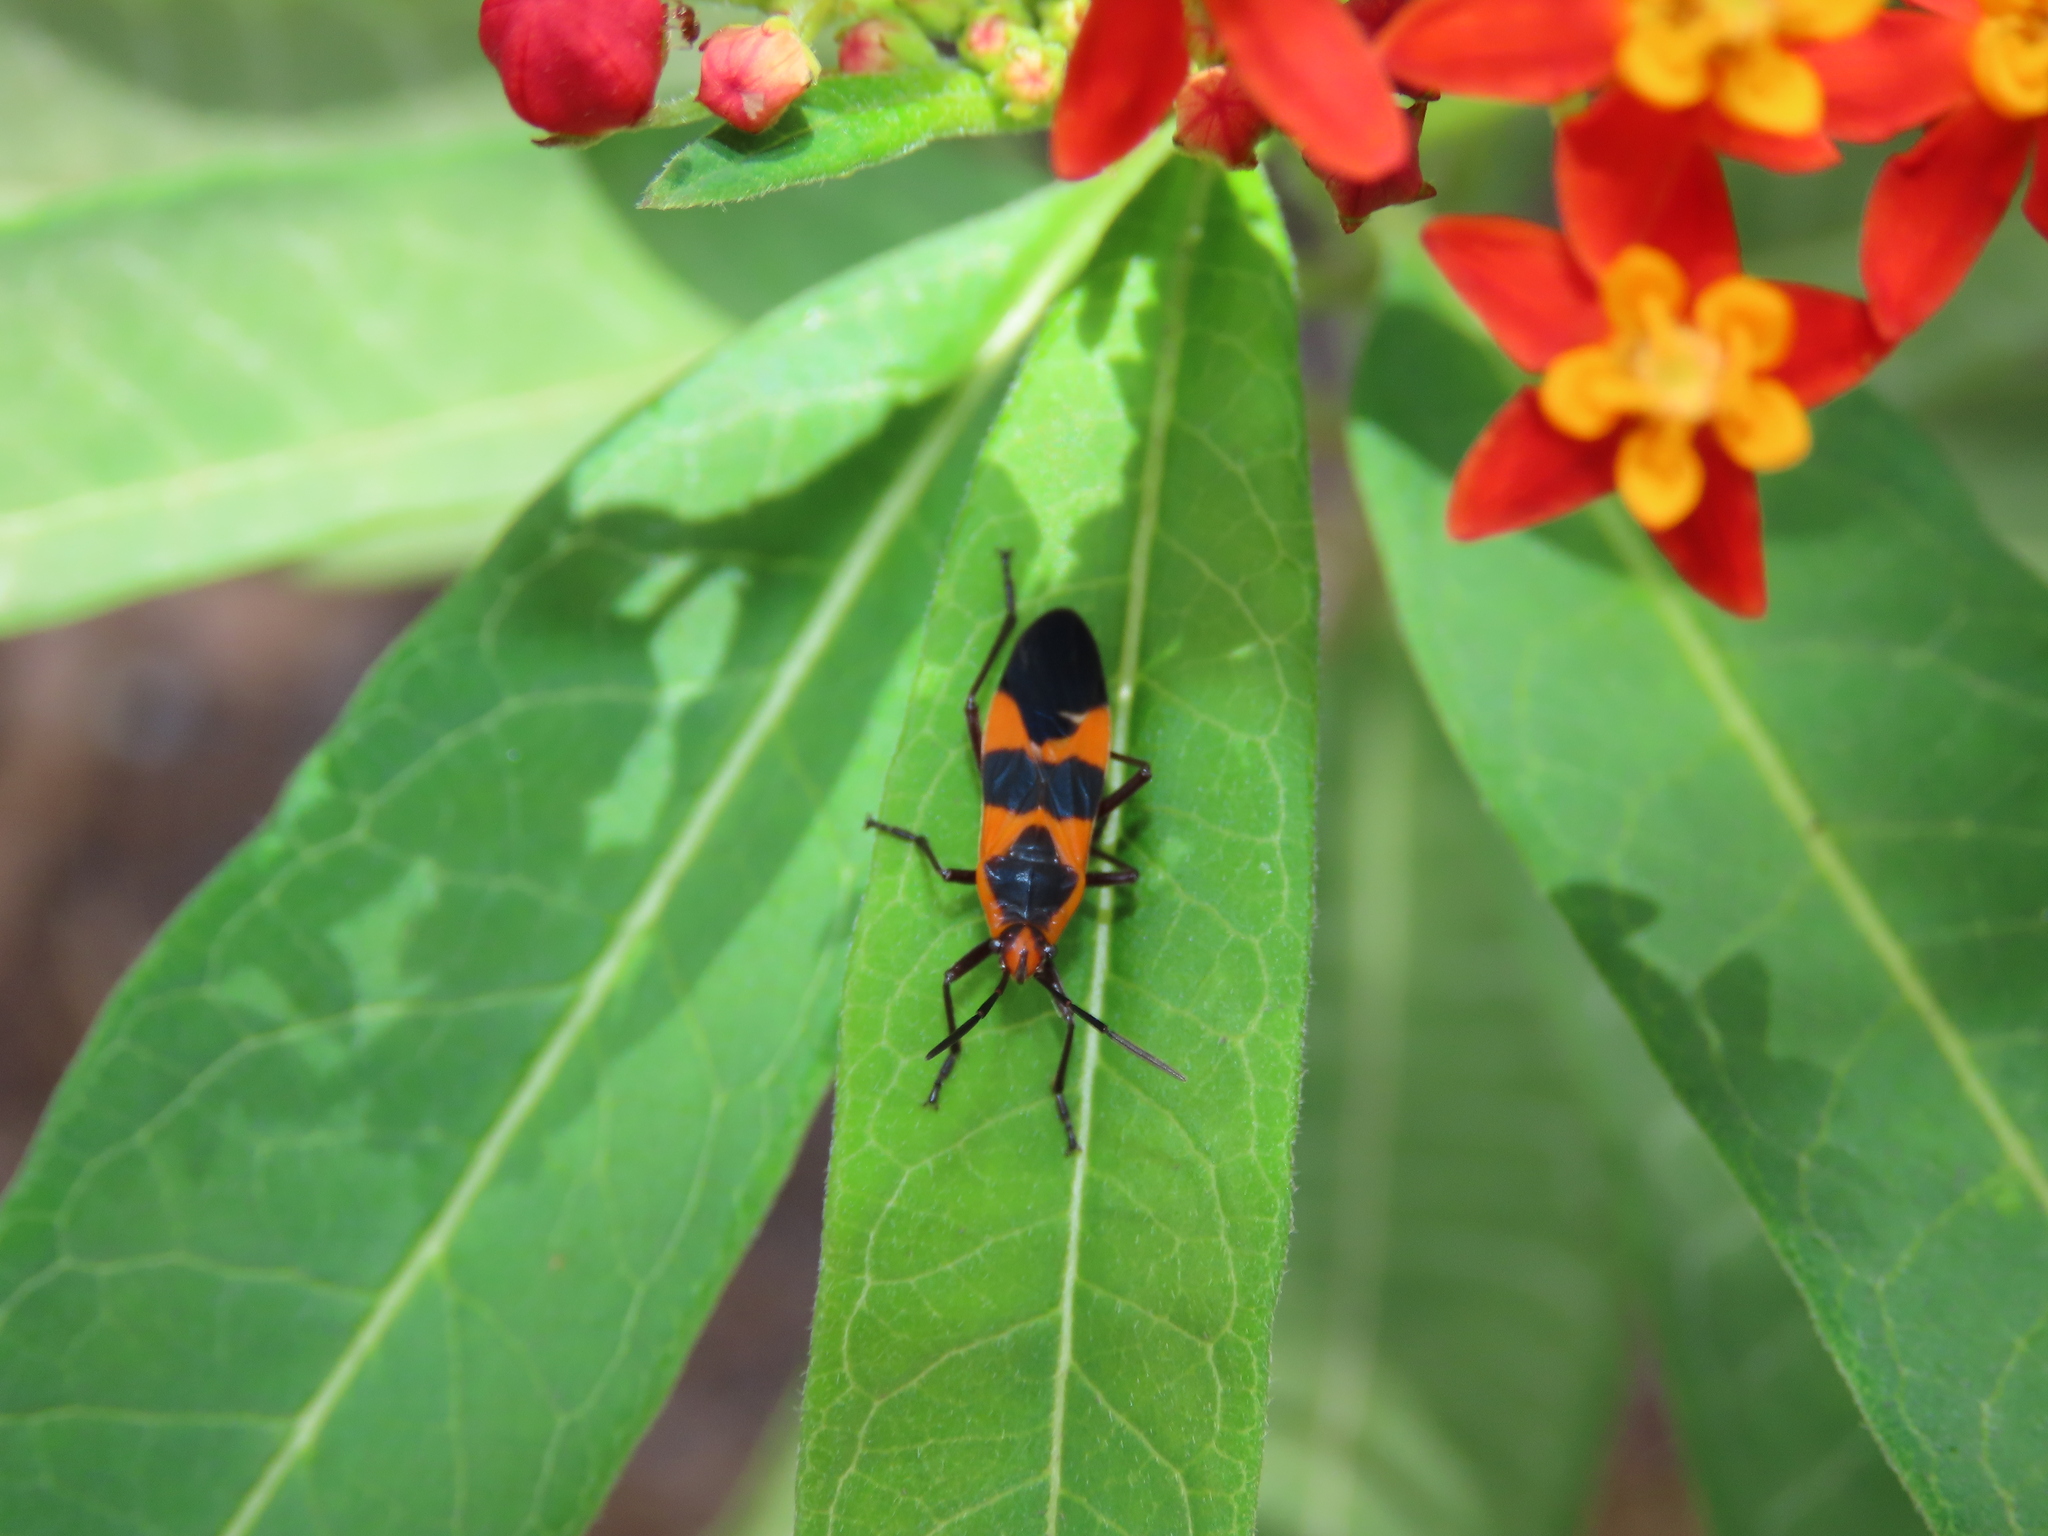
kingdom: Animalia
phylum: Arthropoda
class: Insecta
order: Hemiptera
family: Lygaeidae
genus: Oncopeltus
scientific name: Oncopeltus fasciatus
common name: Large milkweed bug
